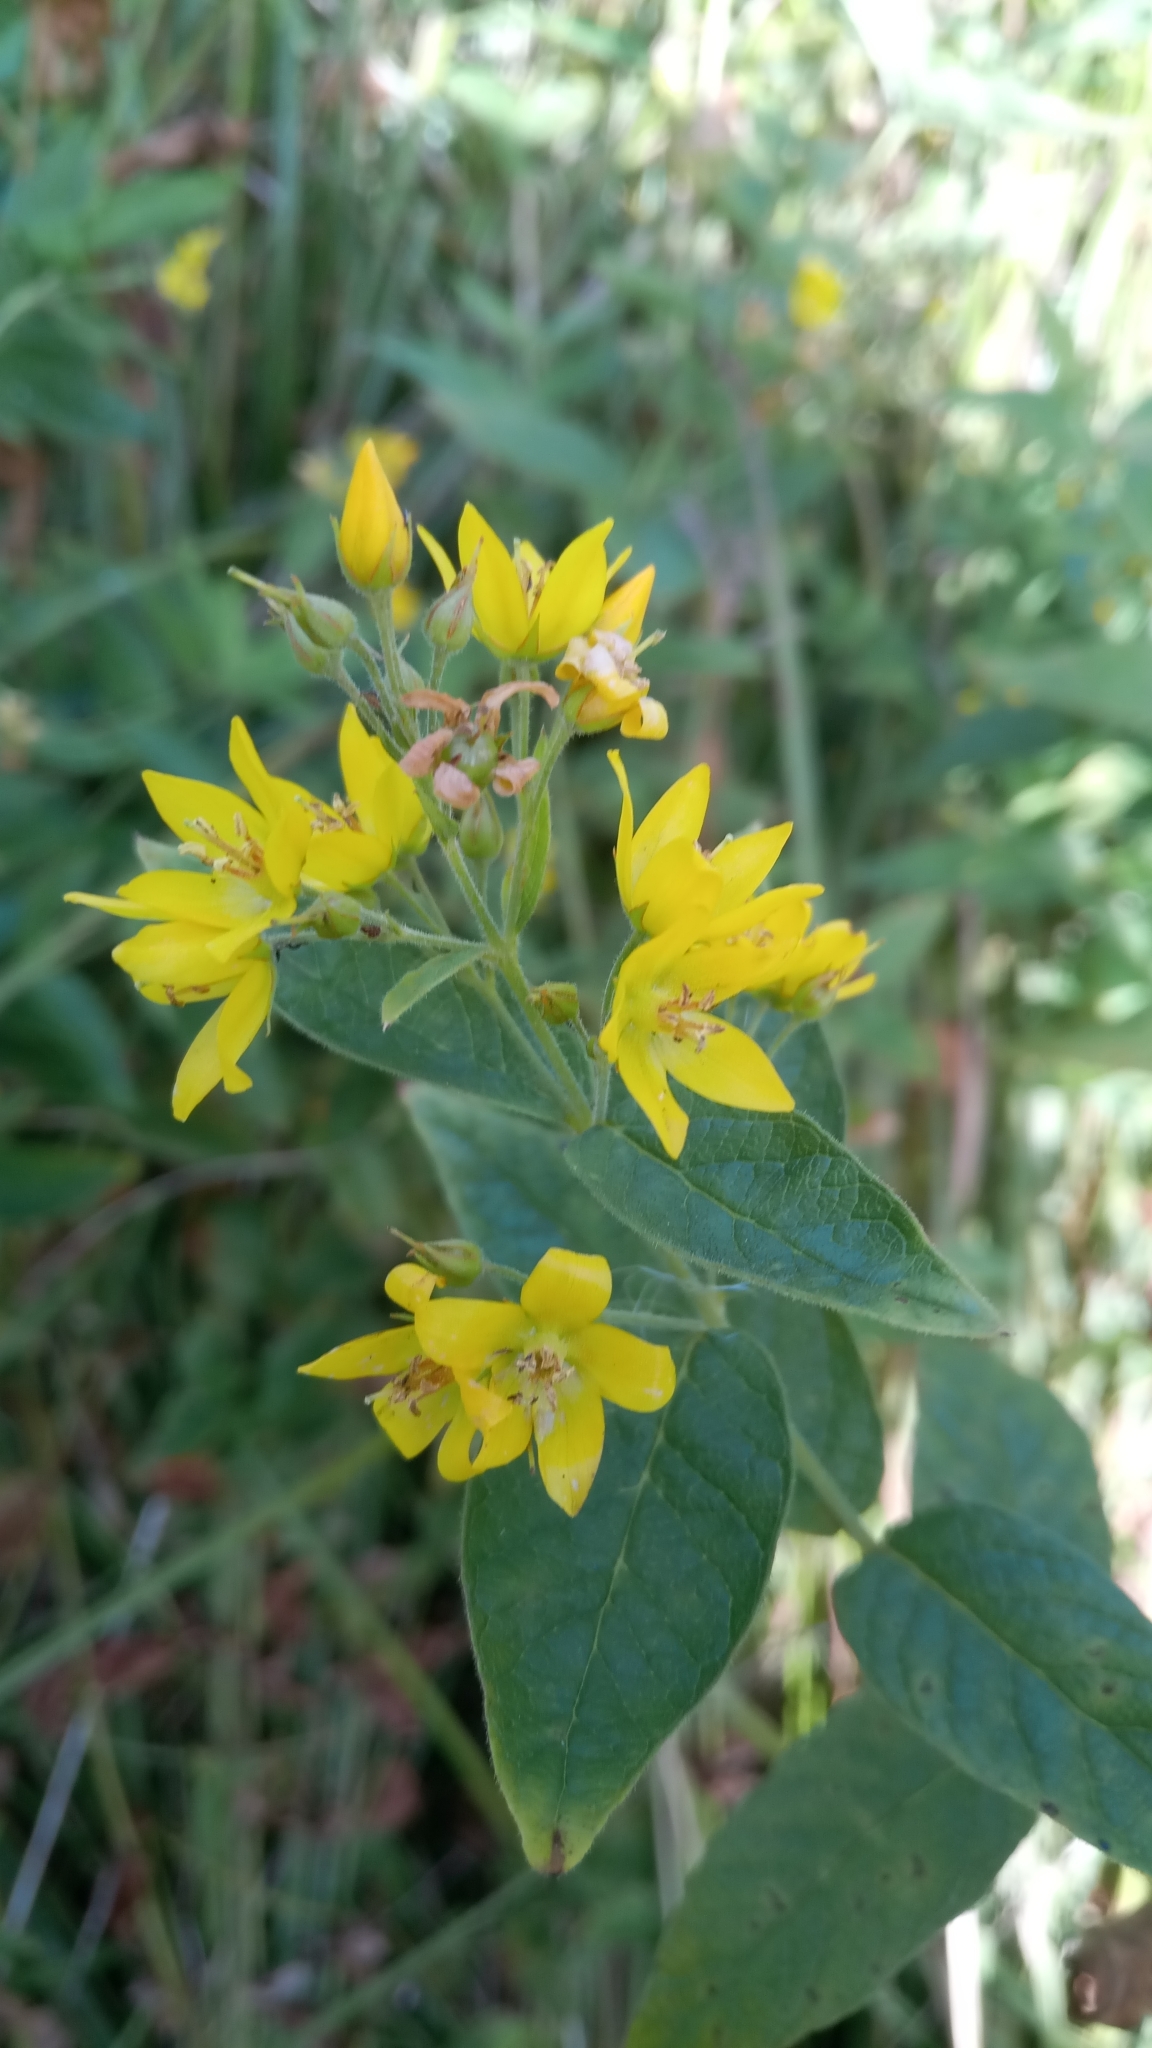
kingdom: Plantae
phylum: Tracheophyta
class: Magnoliopsida
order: Ericales
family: Primulaceae
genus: Lysimachia
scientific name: Lysimachia vulgaris
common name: Yellow loosestrife
